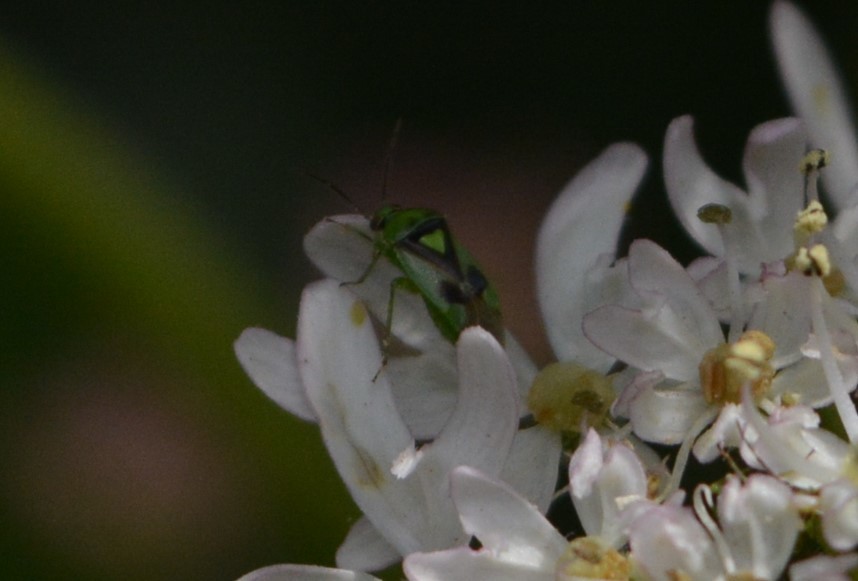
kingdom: Animalia
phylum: Arthropoda
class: Insecta
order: Hemiptera
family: Miridae
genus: Orthops
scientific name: Orthops campestris
